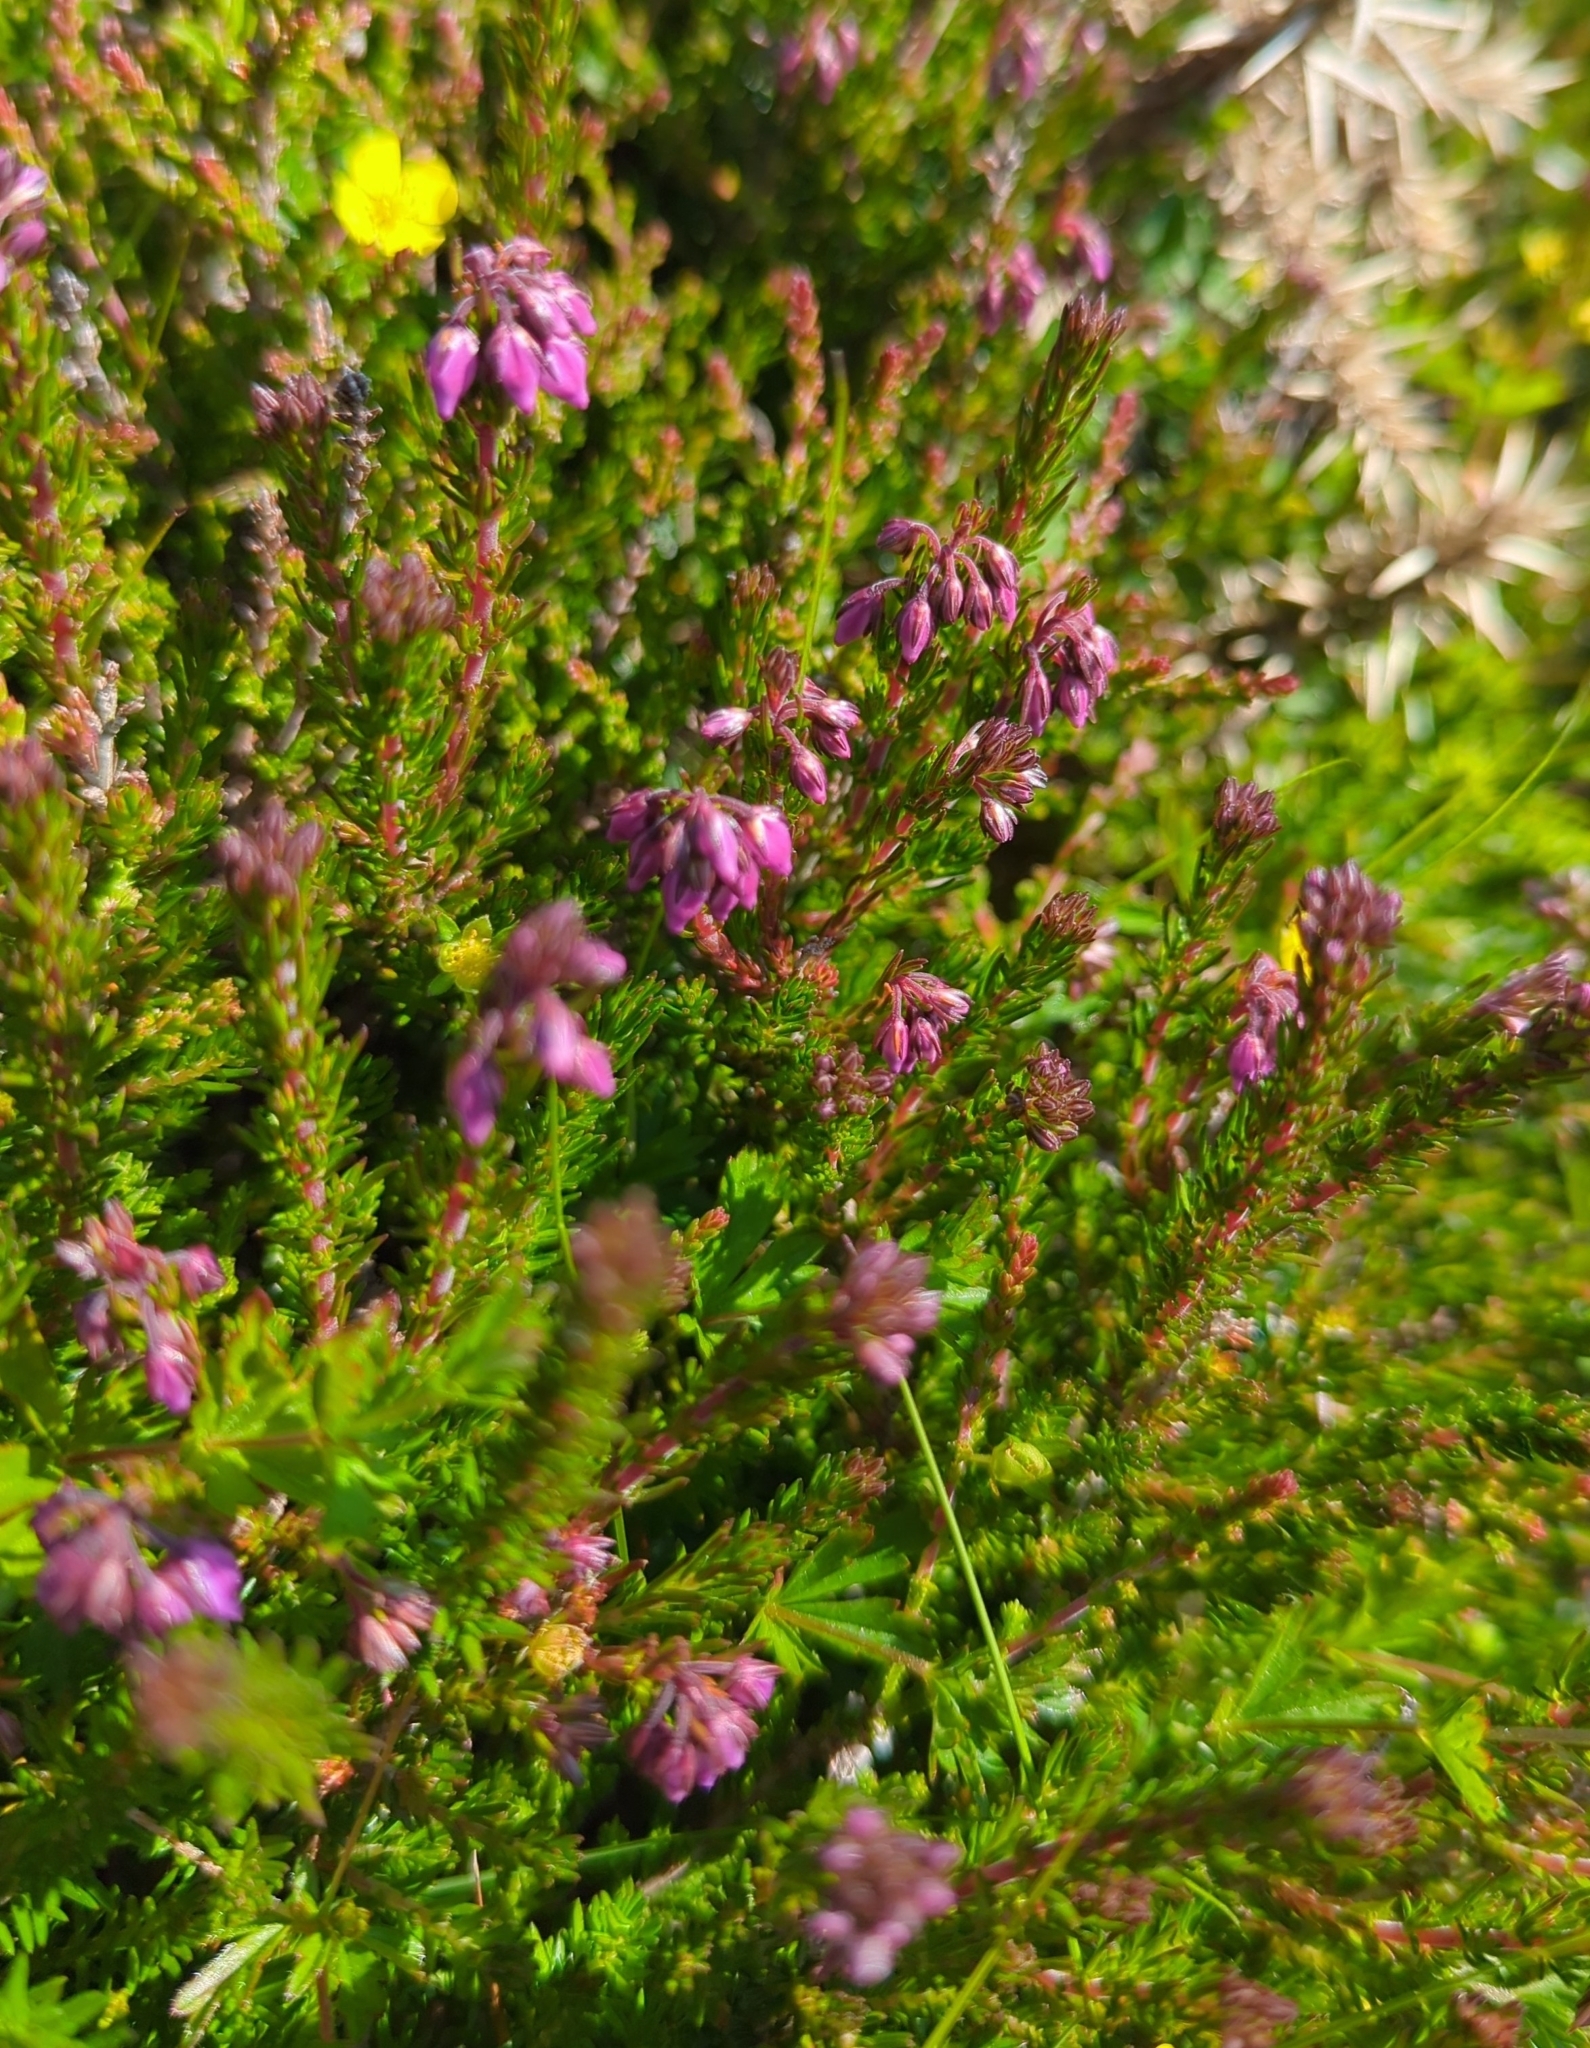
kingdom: Plantae
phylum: Tracheophyta
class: Magnoliopsida
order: Ericales
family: Ericaceae
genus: Erica
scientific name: Erica cinerea
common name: Bell heather
